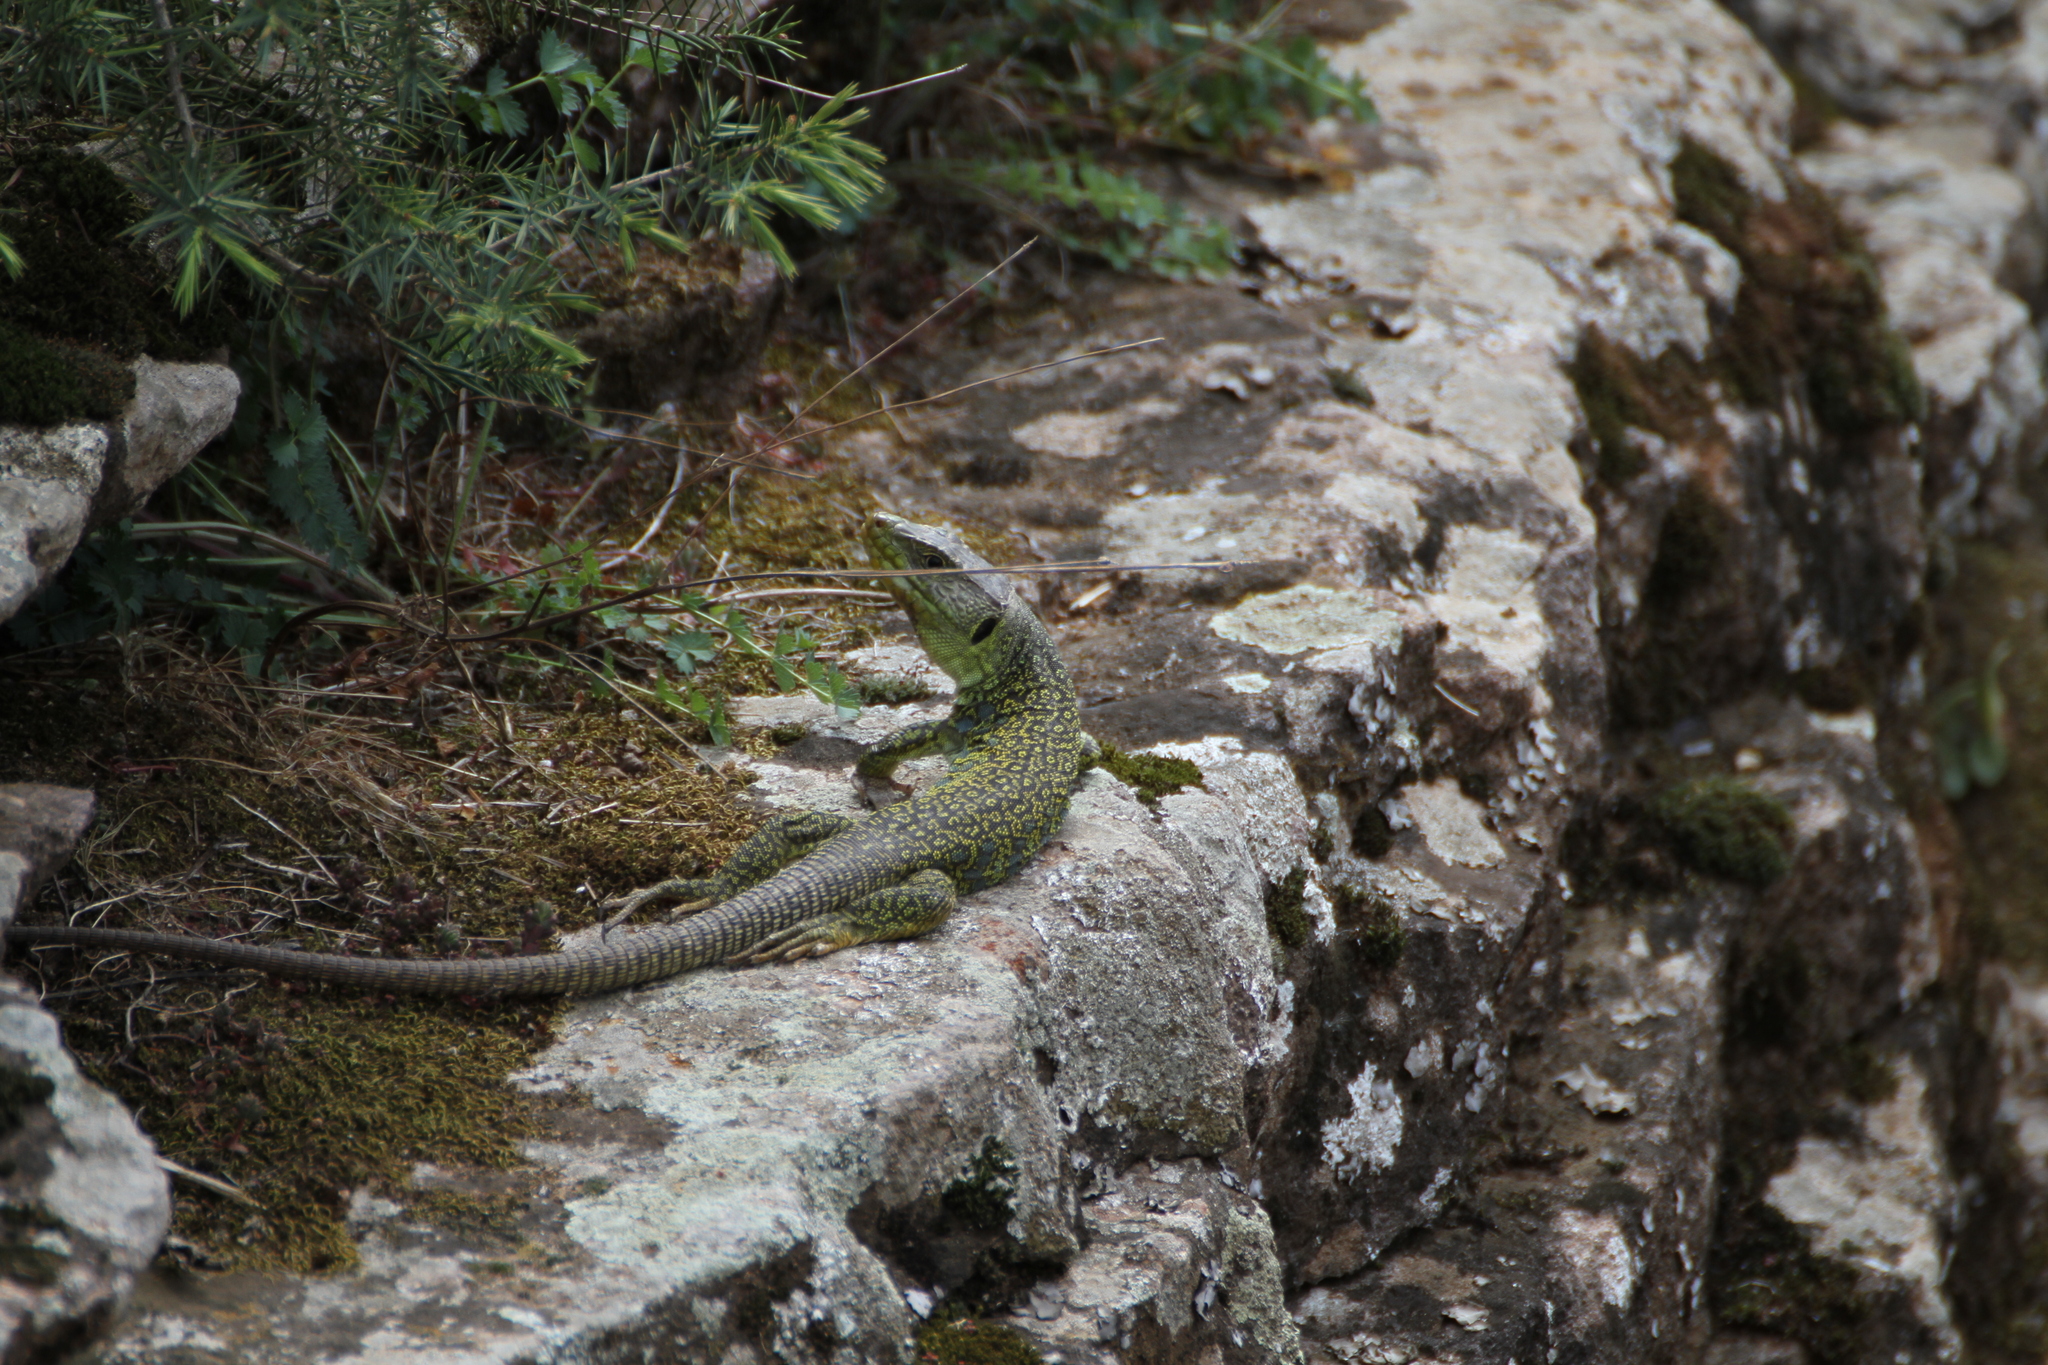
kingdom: Animalia
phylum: Chordata
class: Squamata
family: Lacertidae
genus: Timon
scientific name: Timon lepidus
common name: Ocellated lizard
